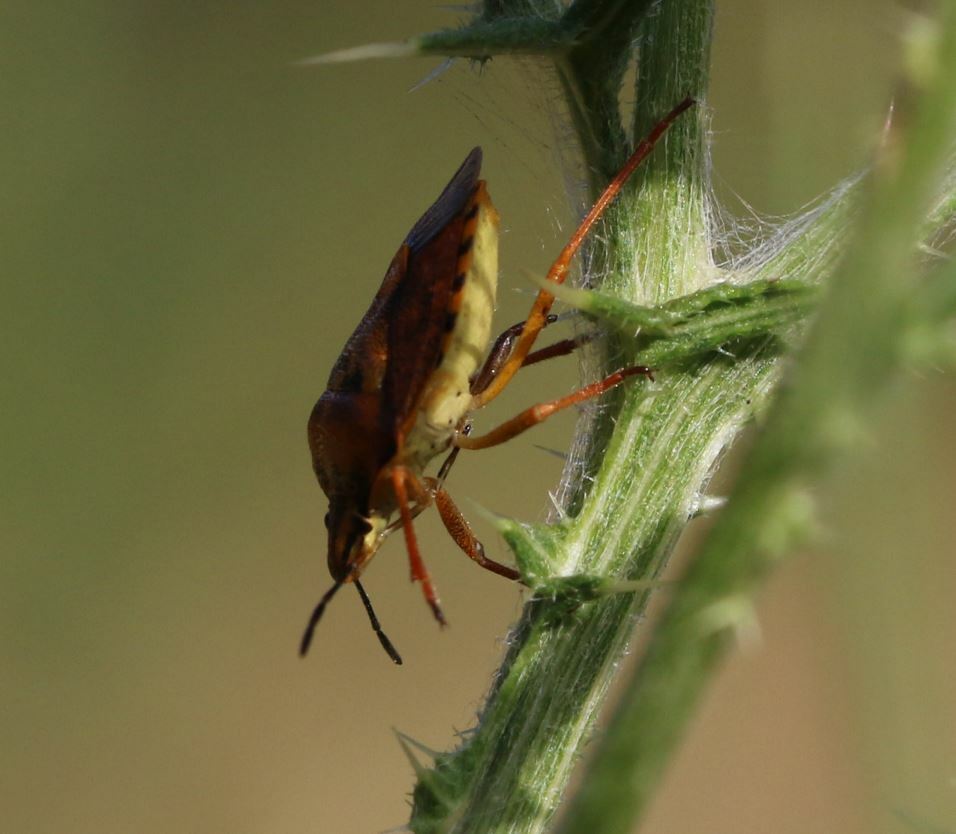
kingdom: Animalia
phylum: Arthropoda
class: Insecta
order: Hemiptera
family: Pentatomidae
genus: Carpocoris
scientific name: Carpocoris mediterraneus
